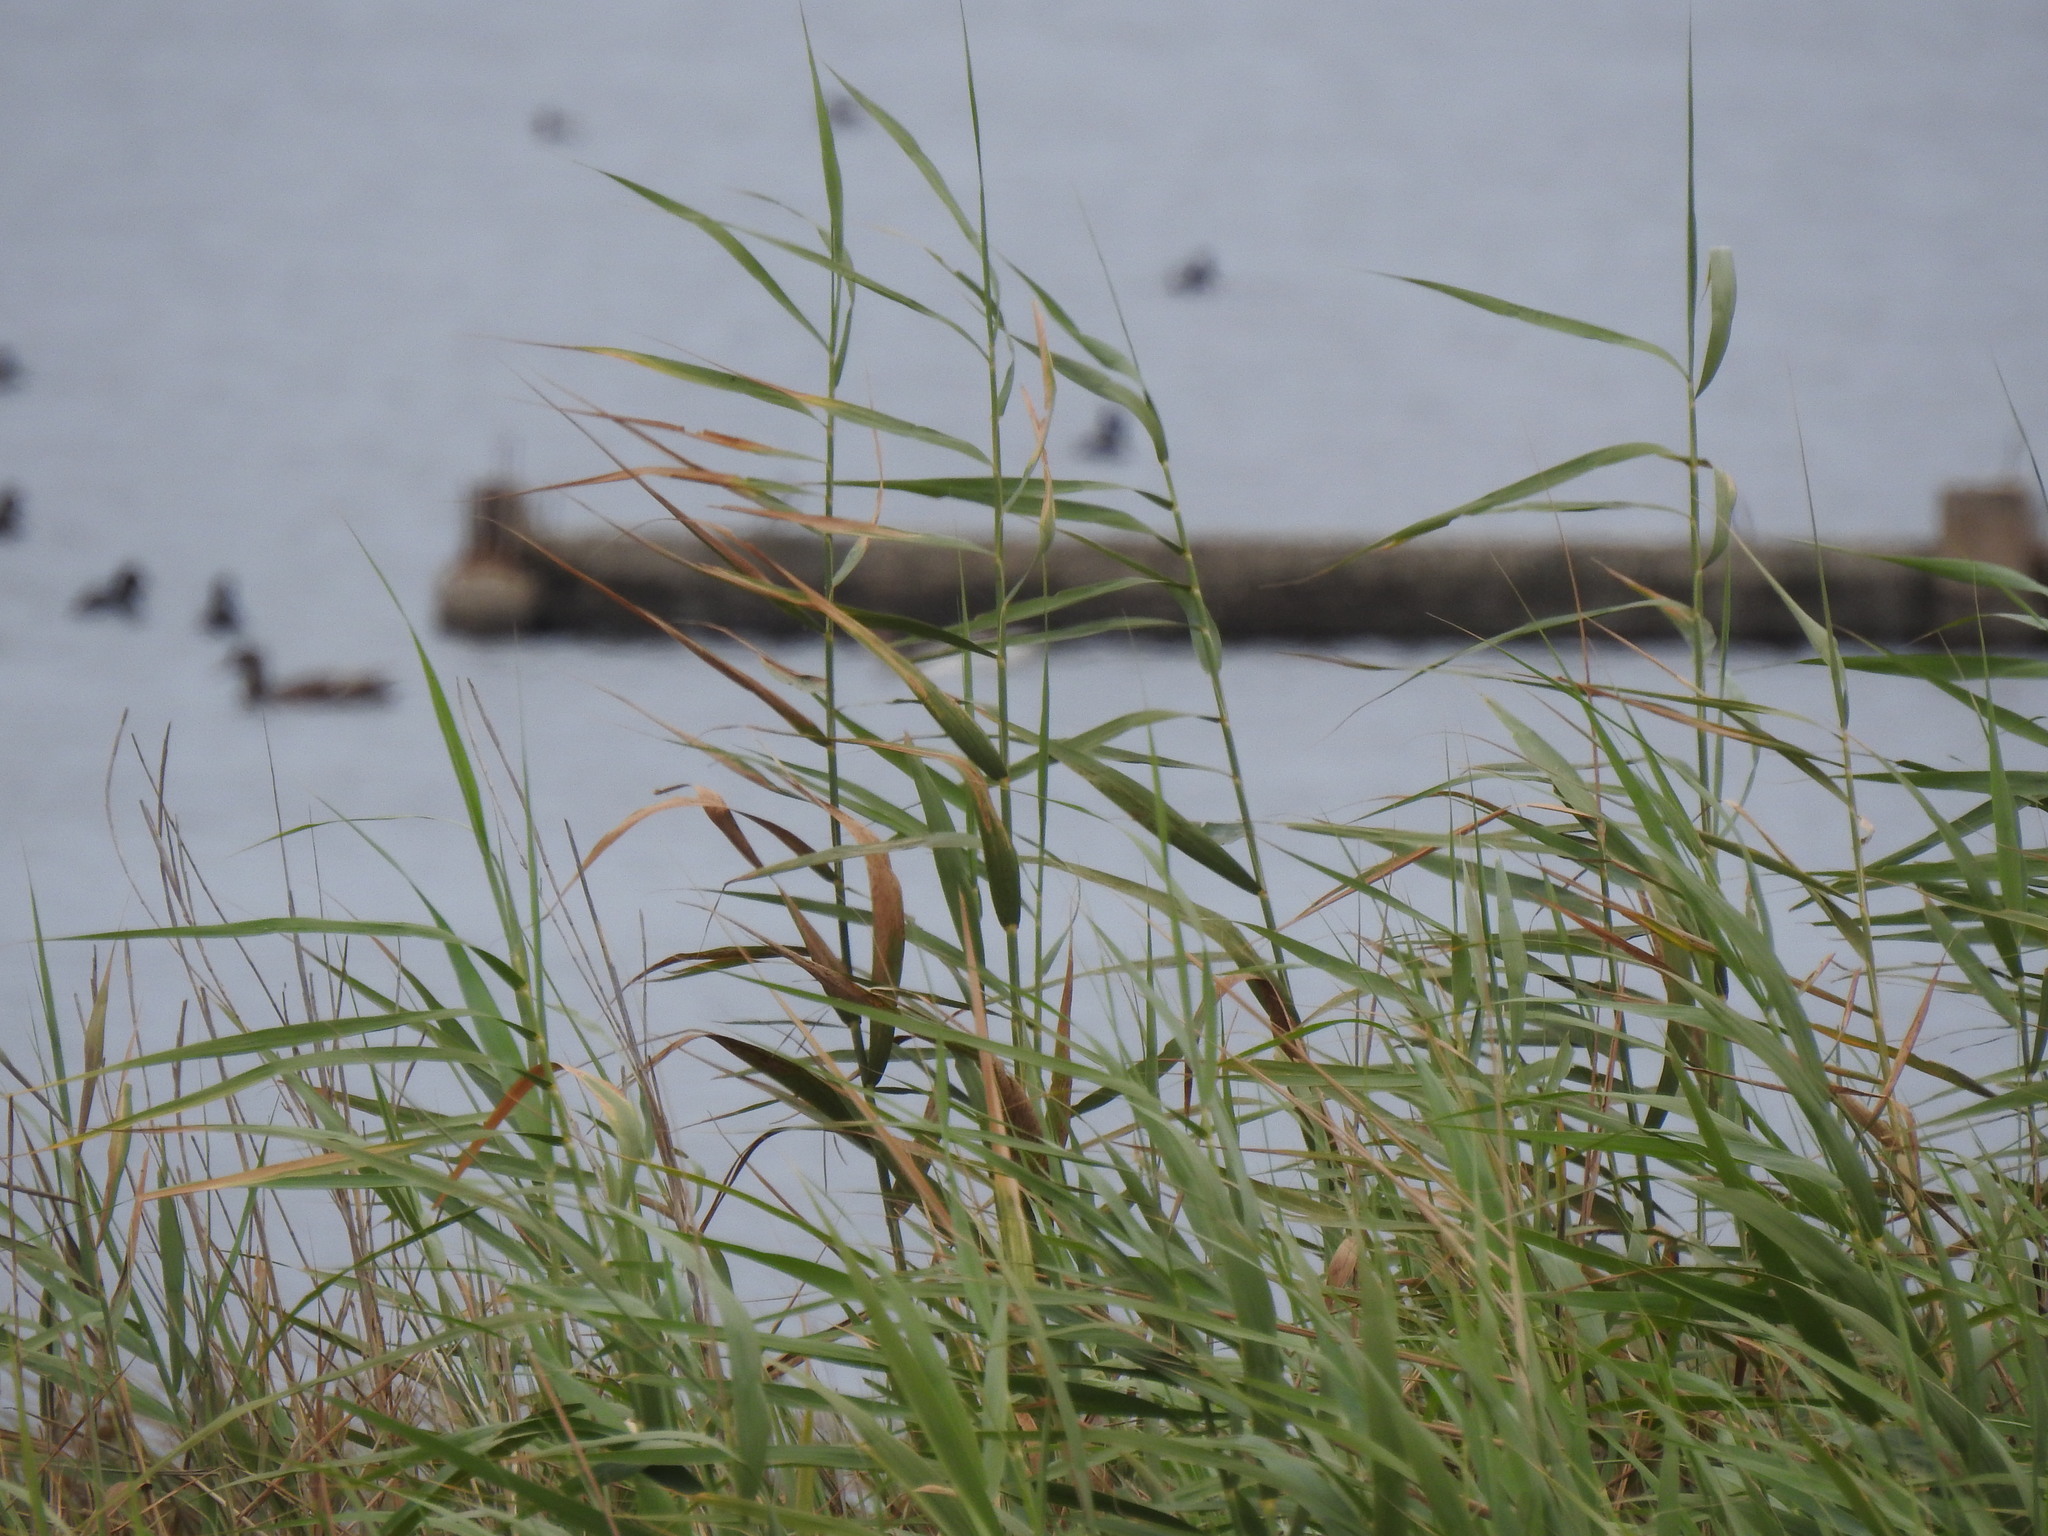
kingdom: Plantae
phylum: Tracheophyta
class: Liliopsida
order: Poales
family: Poaceae
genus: Phragmites
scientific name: Phragmites australis
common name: Common reed
